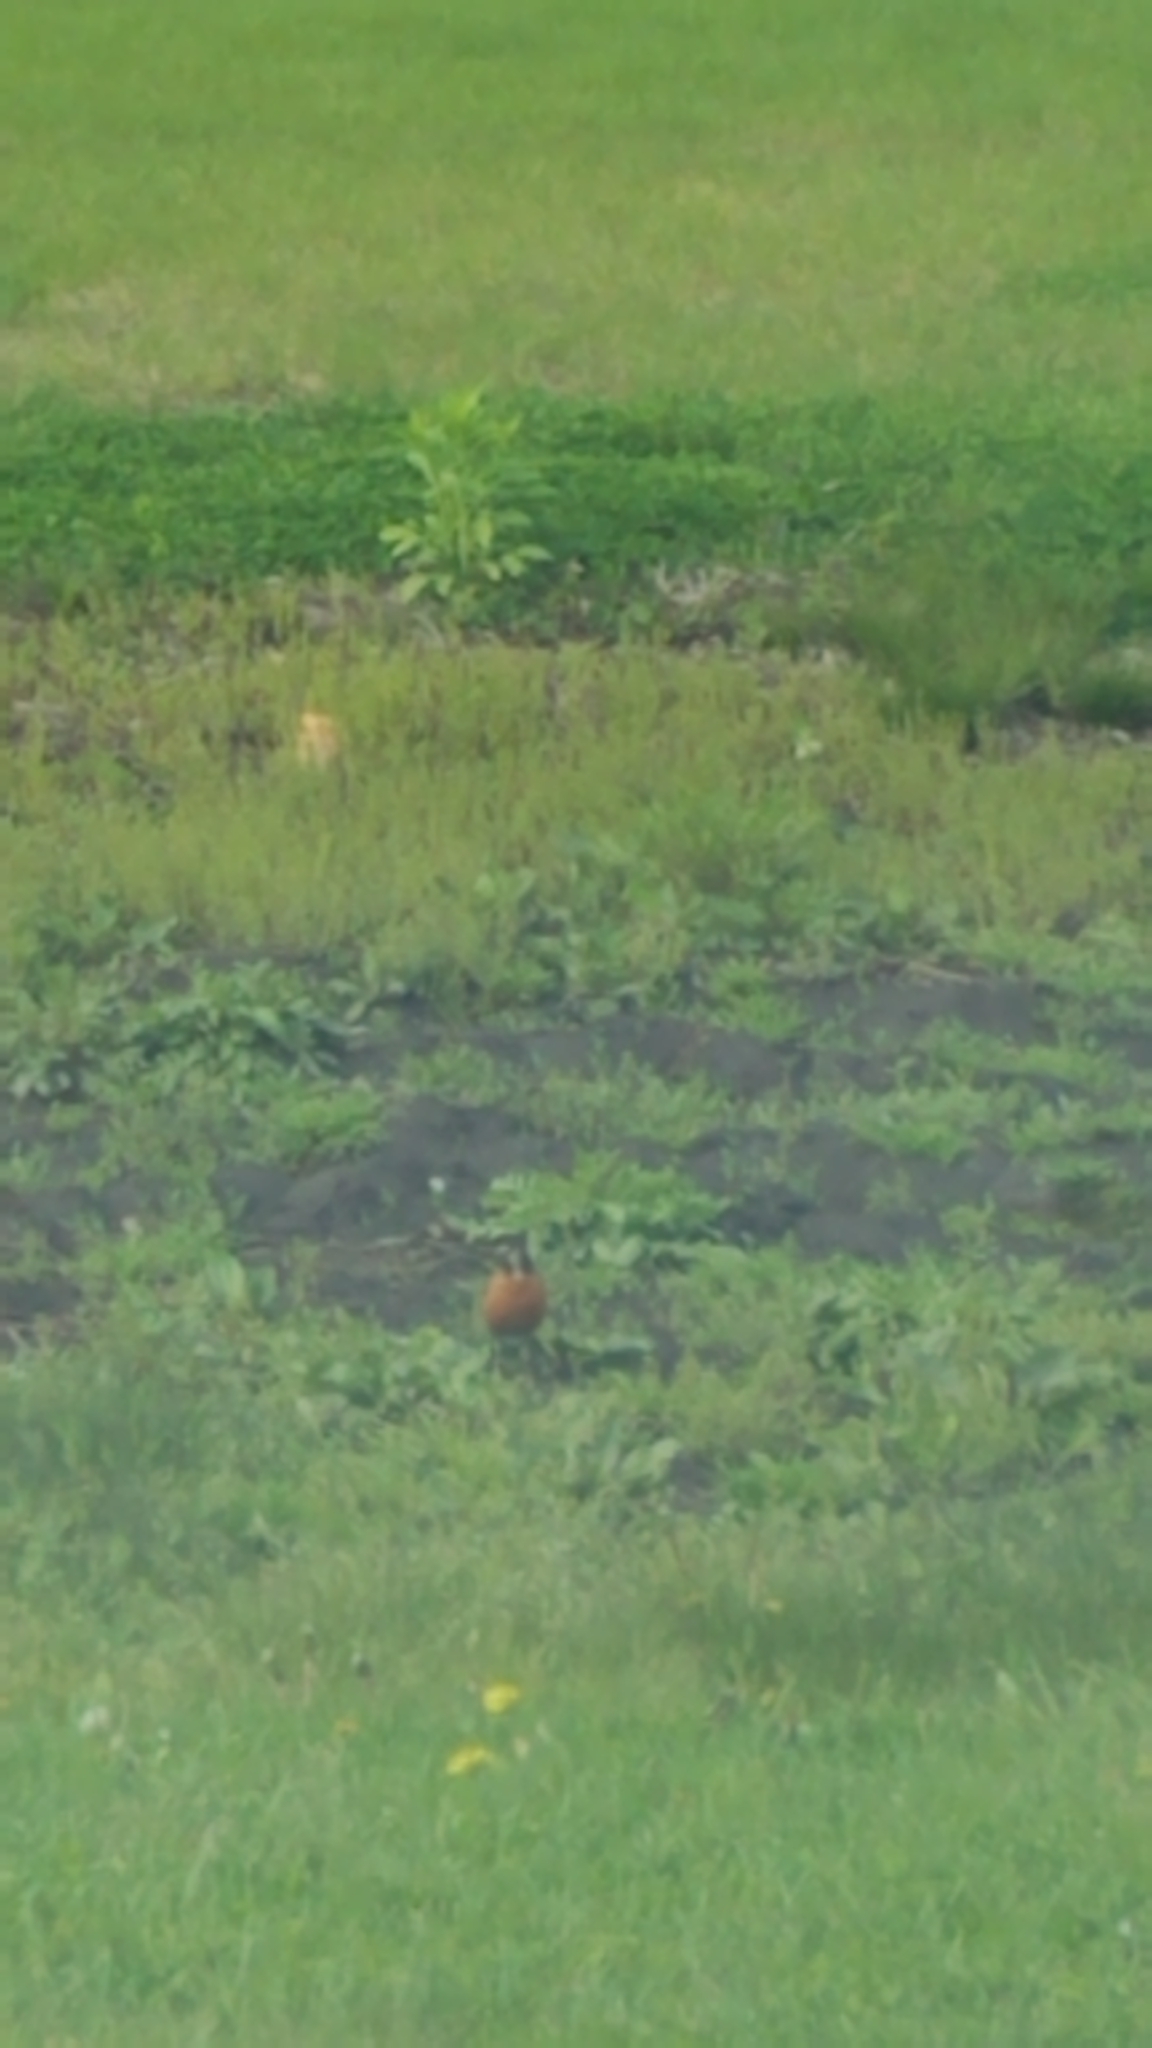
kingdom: Animalia
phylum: Chordata
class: Aves
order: Passeriformes
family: Turdidae
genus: Turdus
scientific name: Turdus migratorius
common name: American robin
